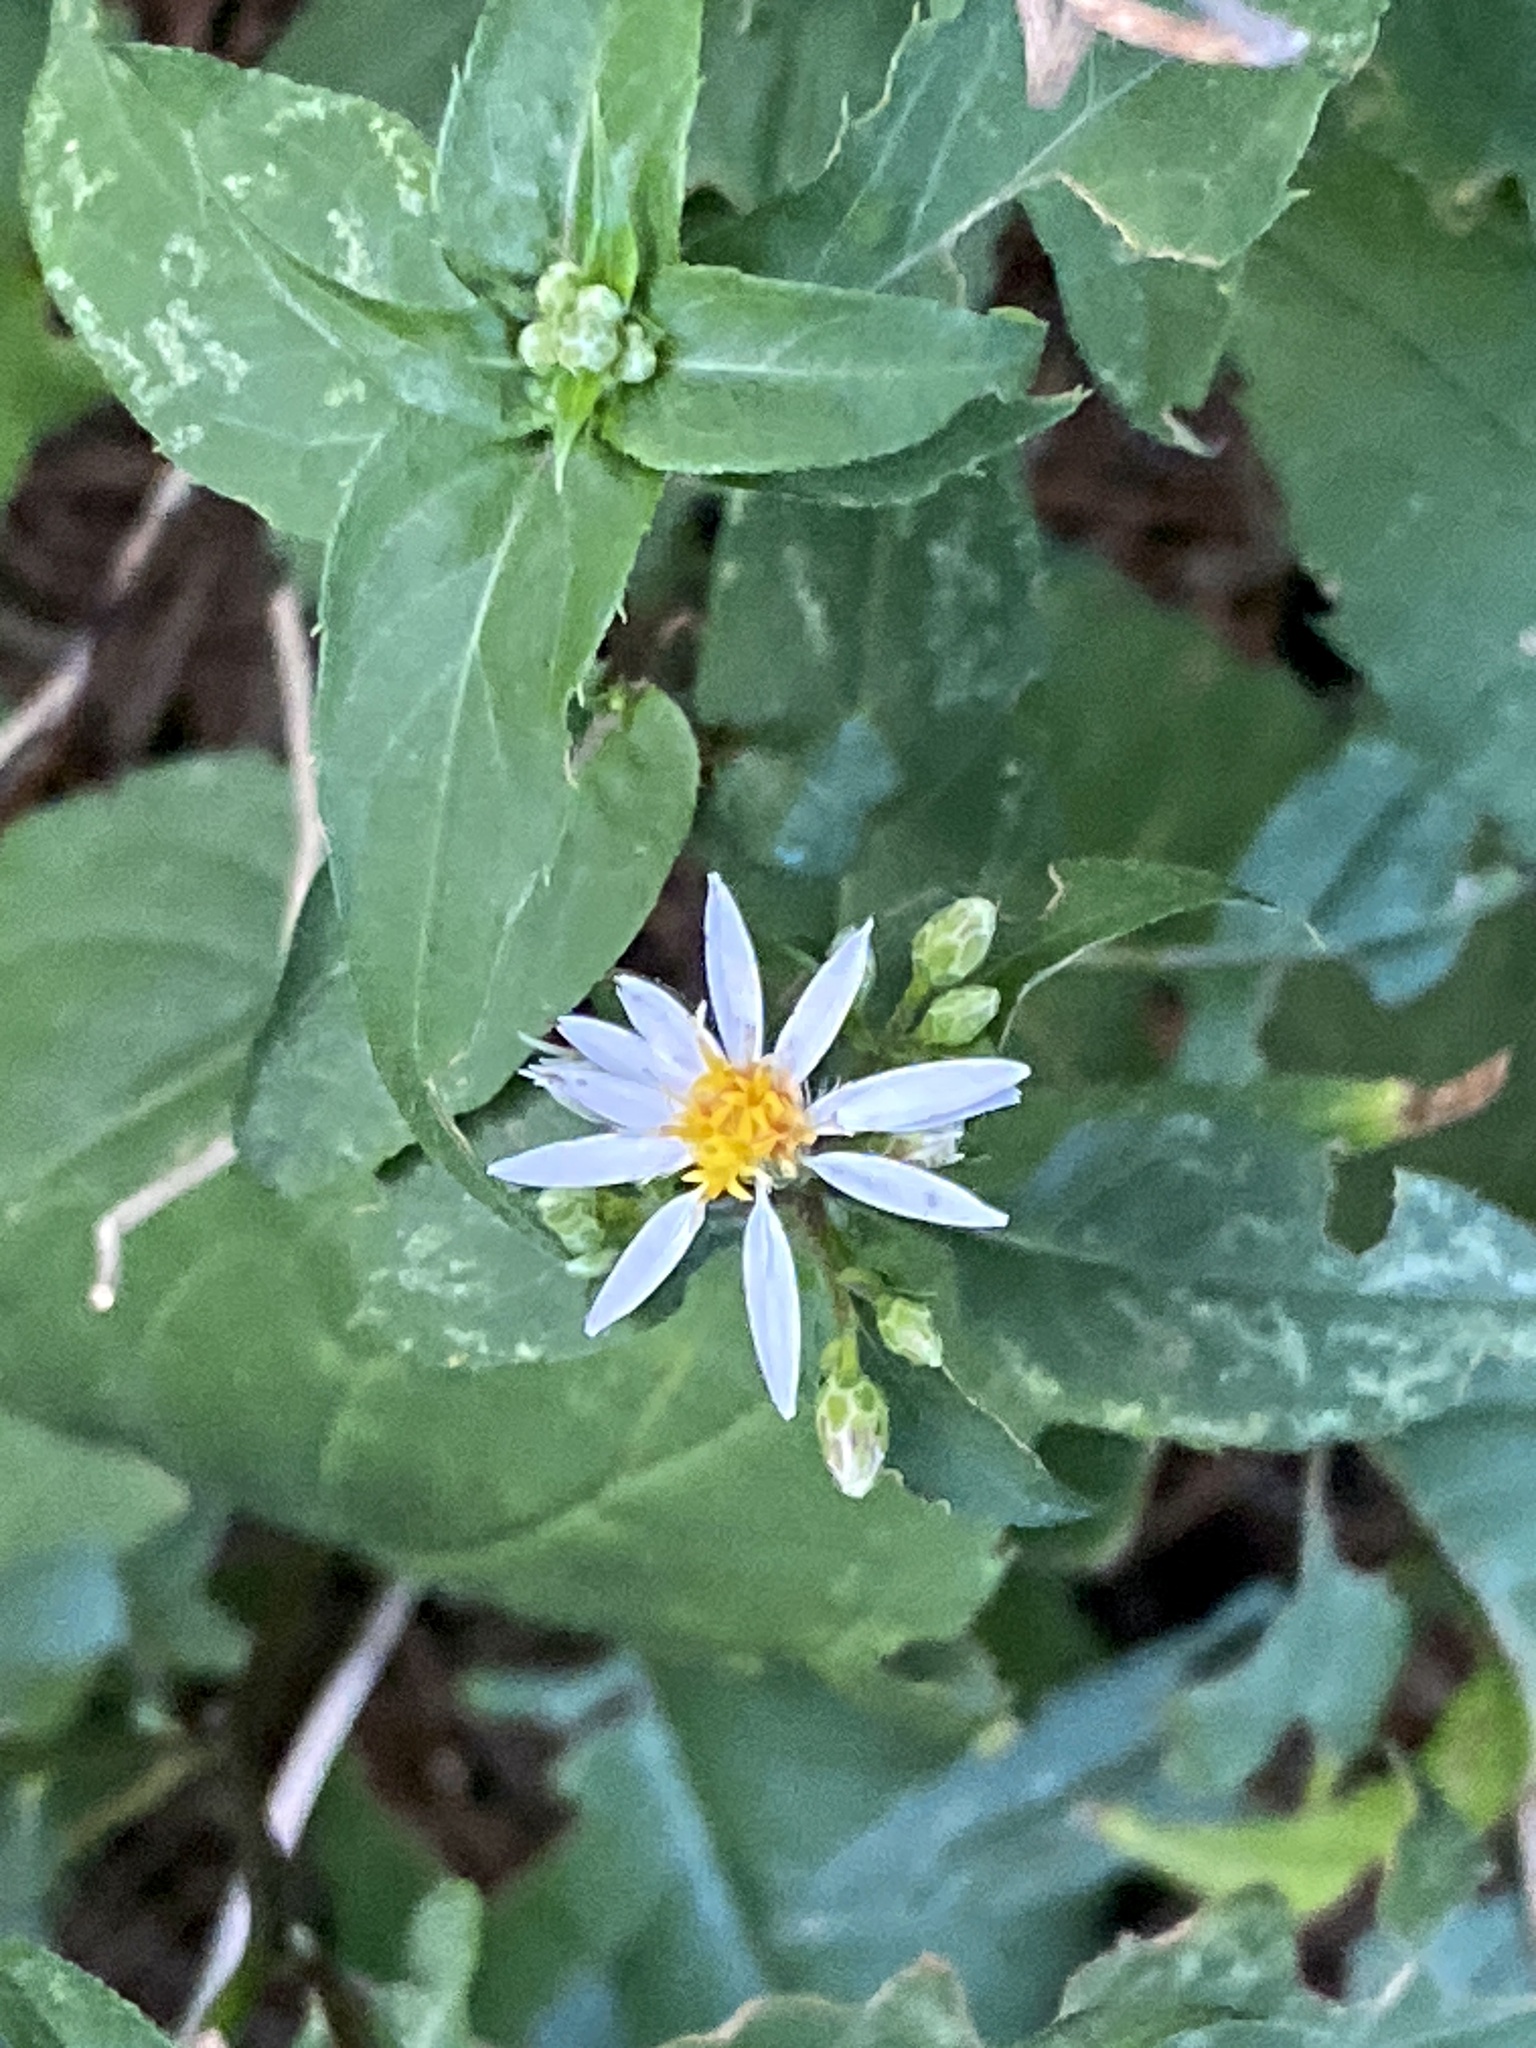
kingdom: Plantae
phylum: Tracheophyta
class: Magnoliopsida
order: Asterales
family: Asteraceae
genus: Eurybia
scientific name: Eurybia divaricata
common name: White wood aster
